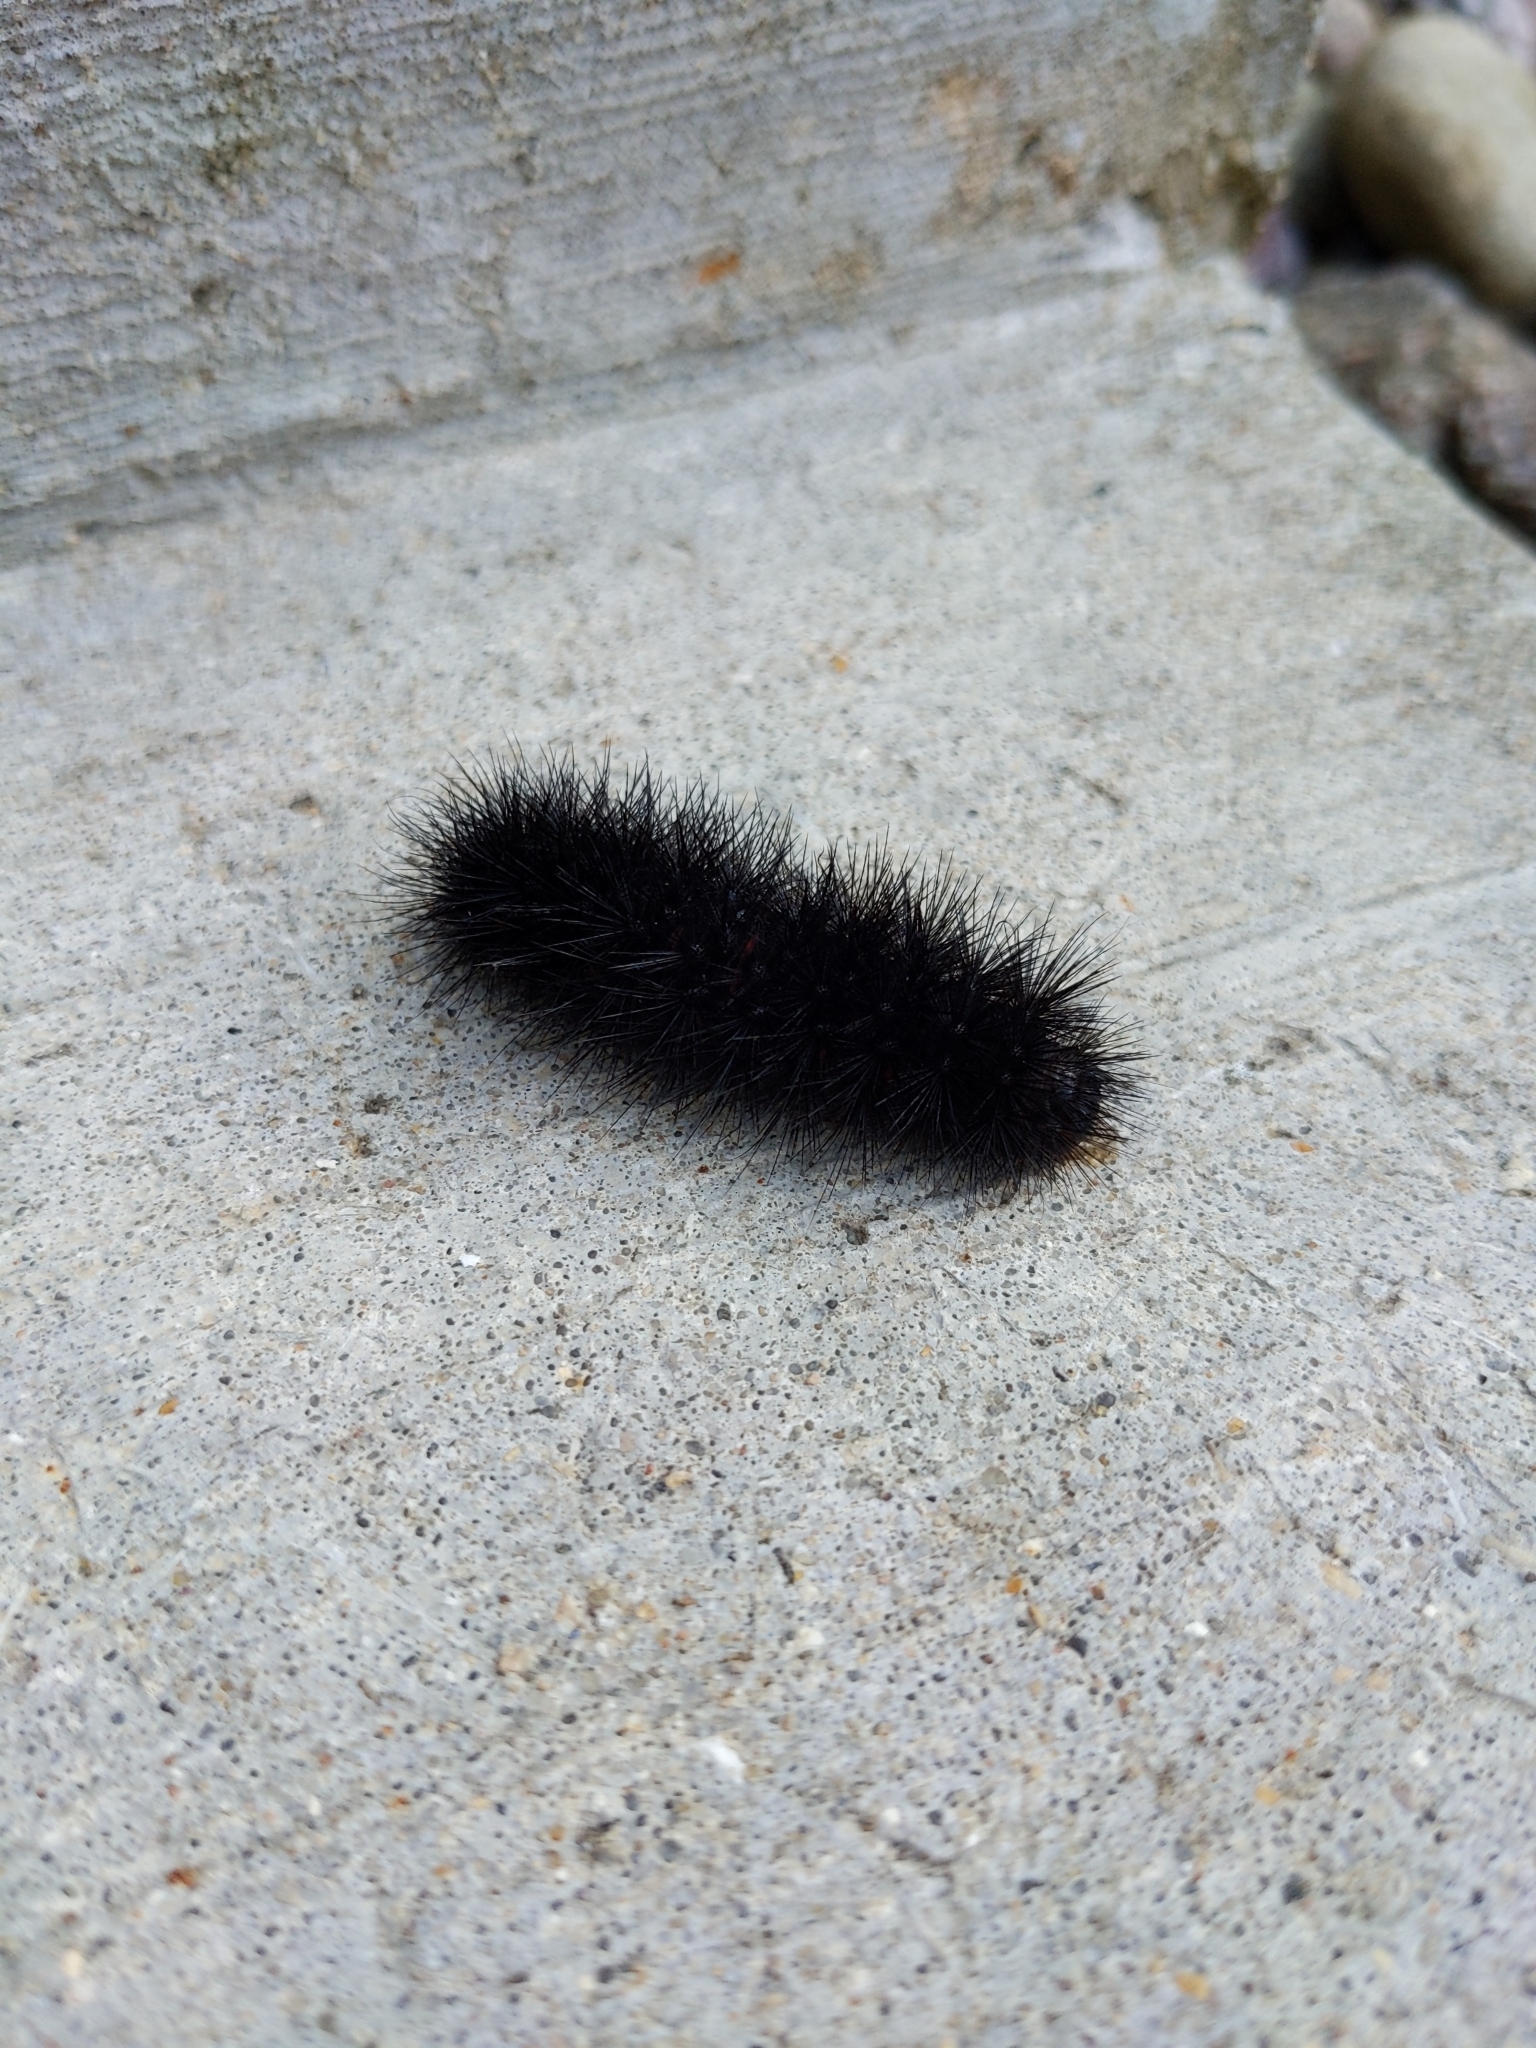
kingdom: Animalia
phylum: Arthropoda
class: Insecta
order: Lepidoptera
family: Erebidae
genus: Hypercompe
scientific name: Hypercompe scribonia
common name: Giant leopard moth
